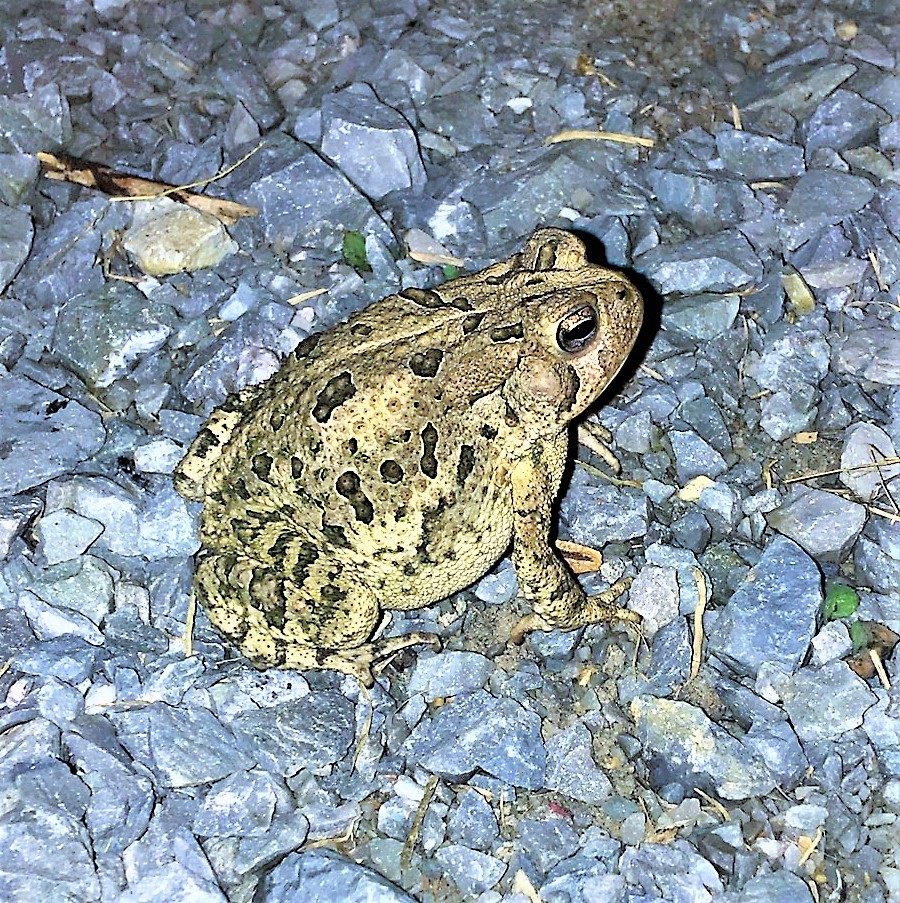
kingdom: Animalia
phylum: Chordata
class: Amphibia
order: Anura
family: Bufonidae
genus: Anaxyrus
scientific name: Anaxyrus fowleri
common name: Fowler's toad
